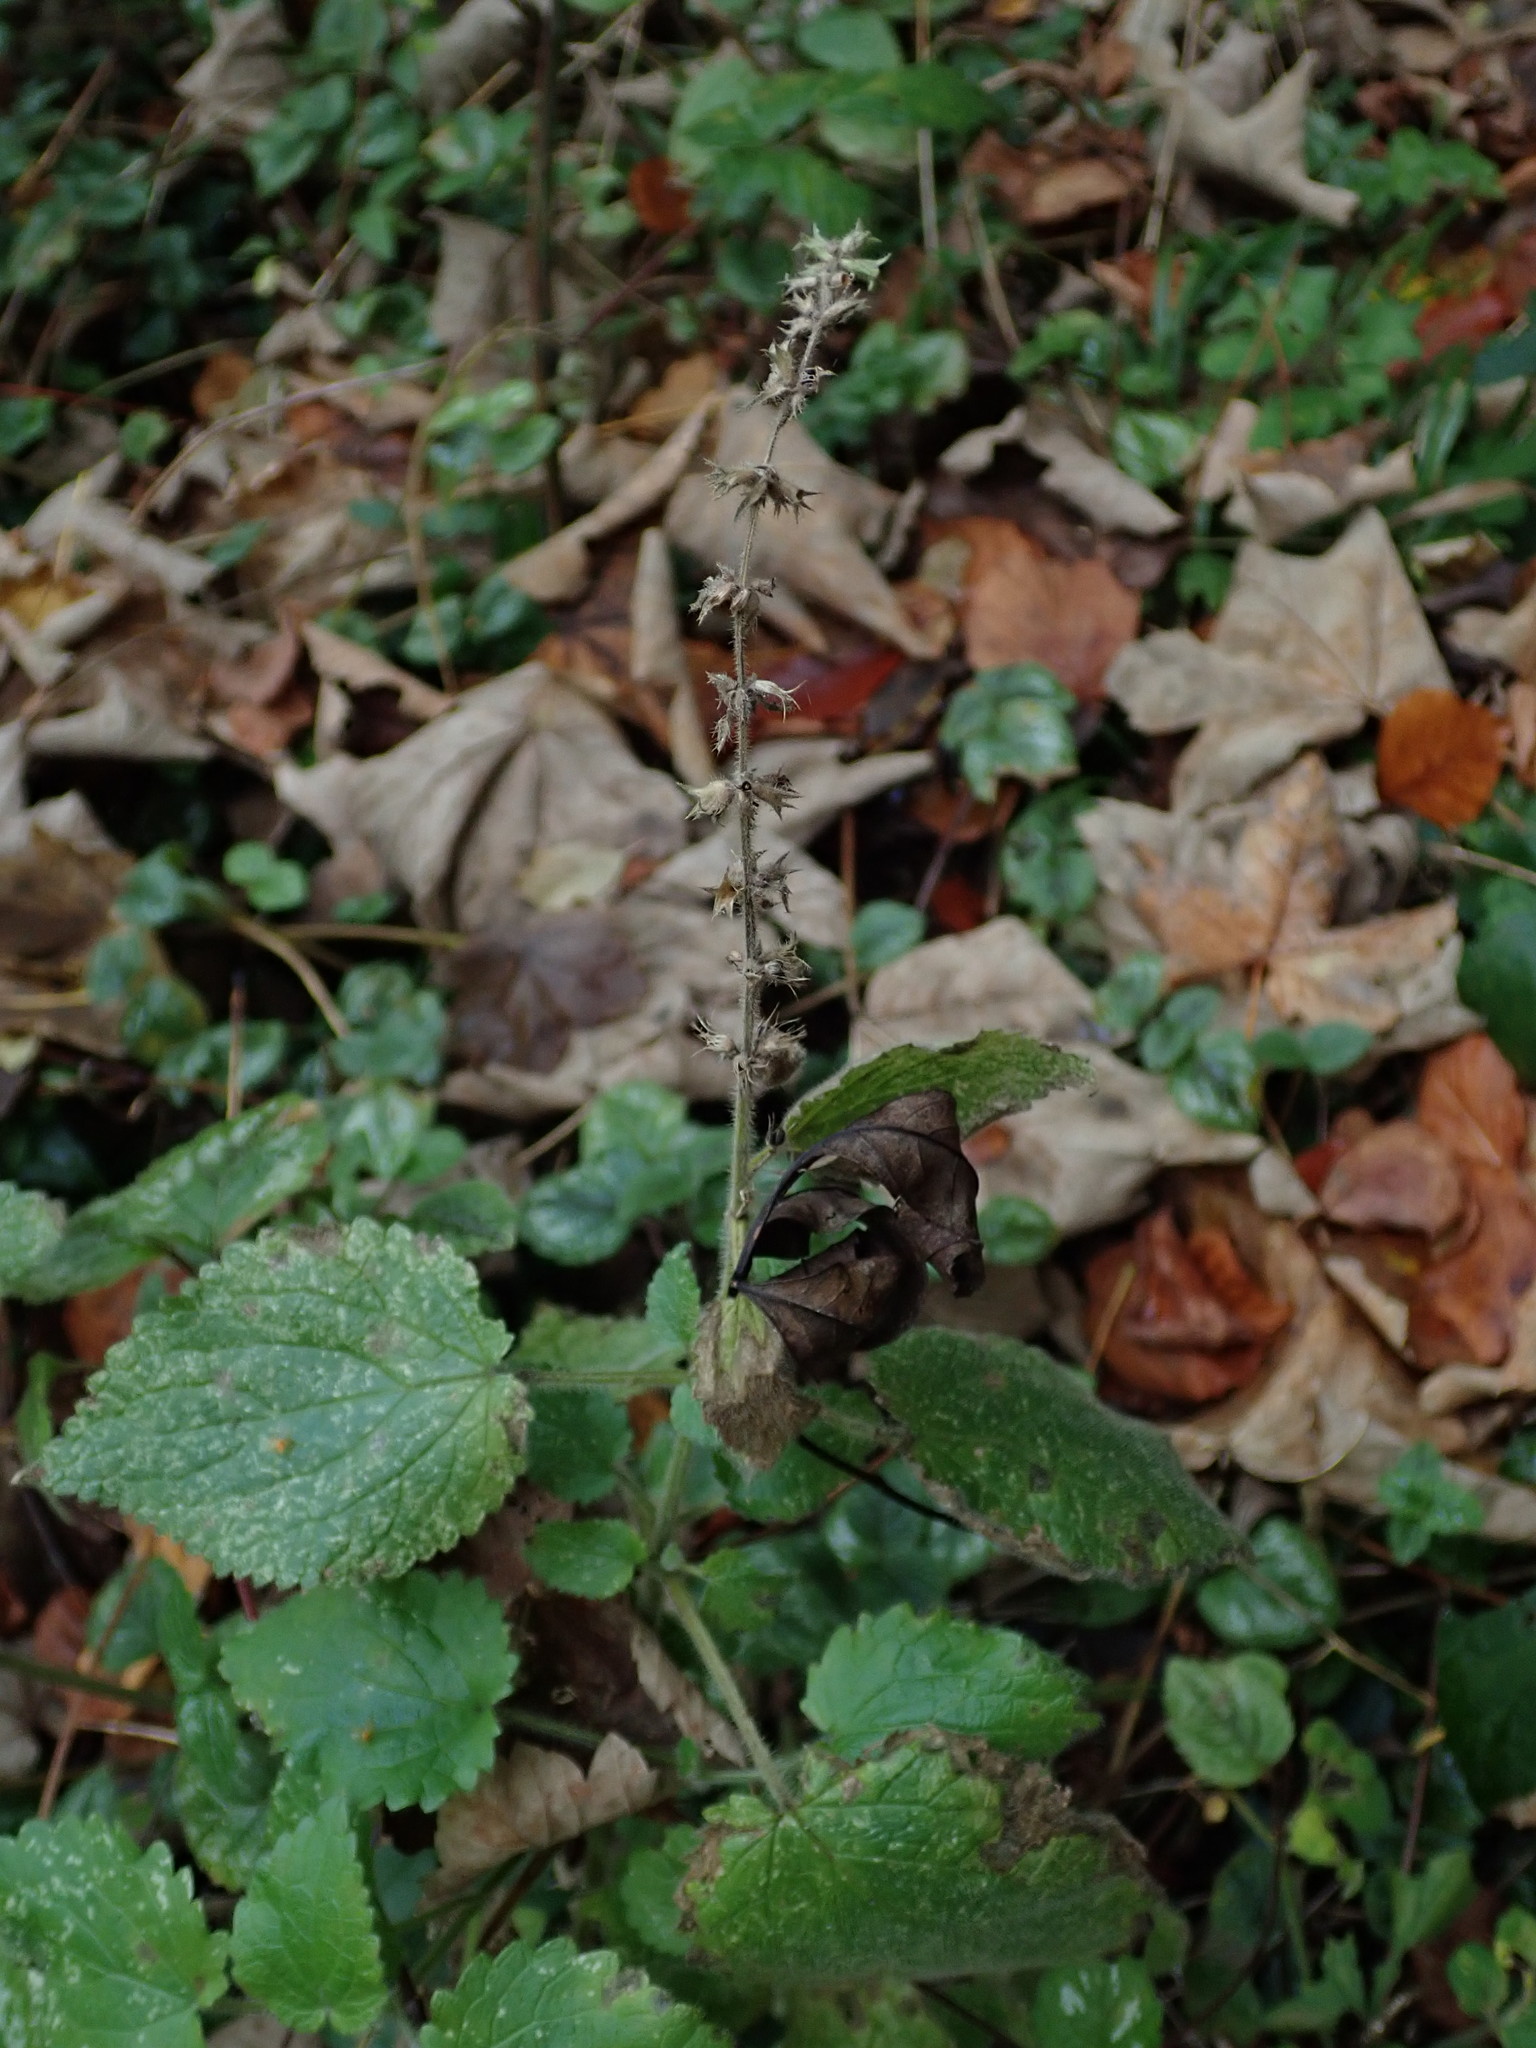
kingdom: Plantae
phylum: Tracheophyta
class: Magnoliopsida
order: Lamiales
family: Lamiaceae
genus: Stachys
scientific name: Stachys sylvatica
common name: Hedge woundwort
